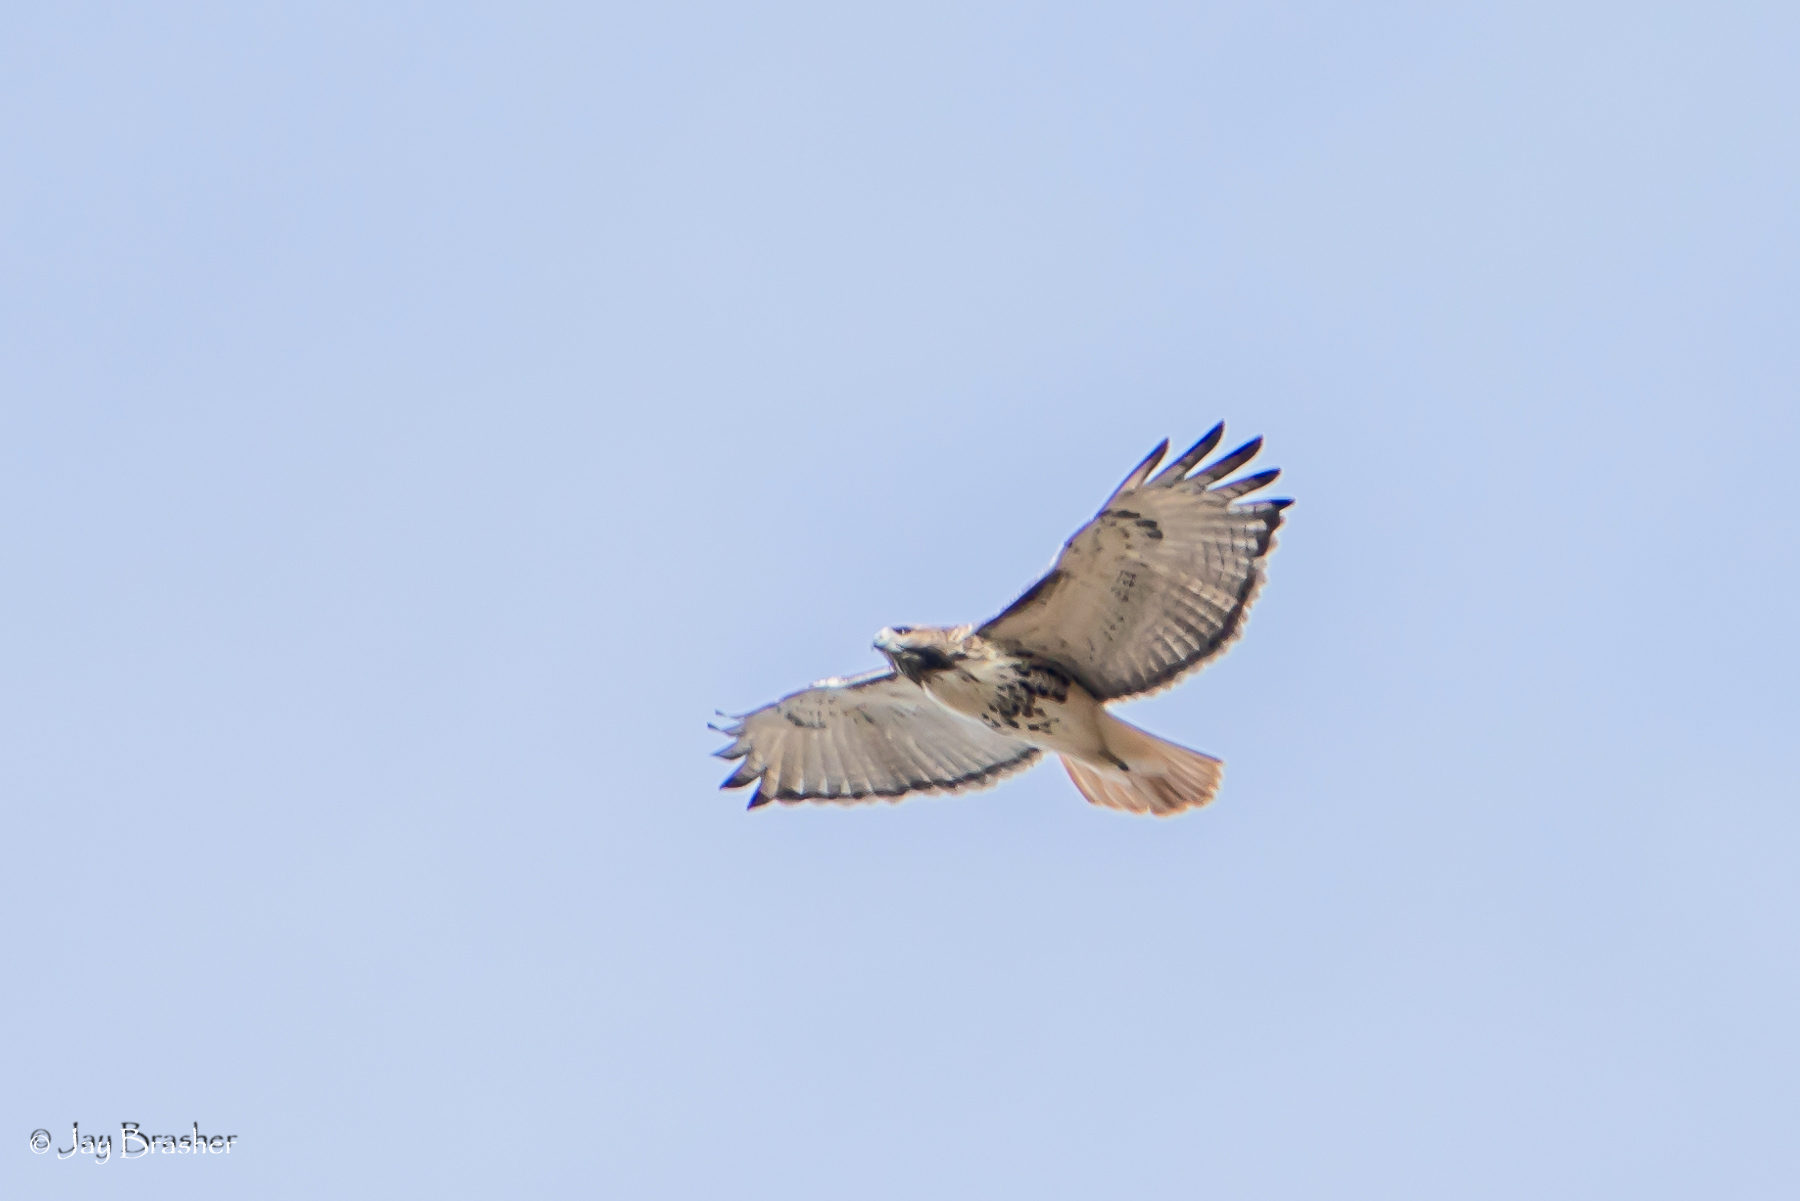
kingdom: Animalia
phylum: Chordata
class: Aves
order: Accipitriformes
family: Accipitridae
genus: Buteo
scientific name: Buteo jamaicensis
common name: Red-tailed hawk
